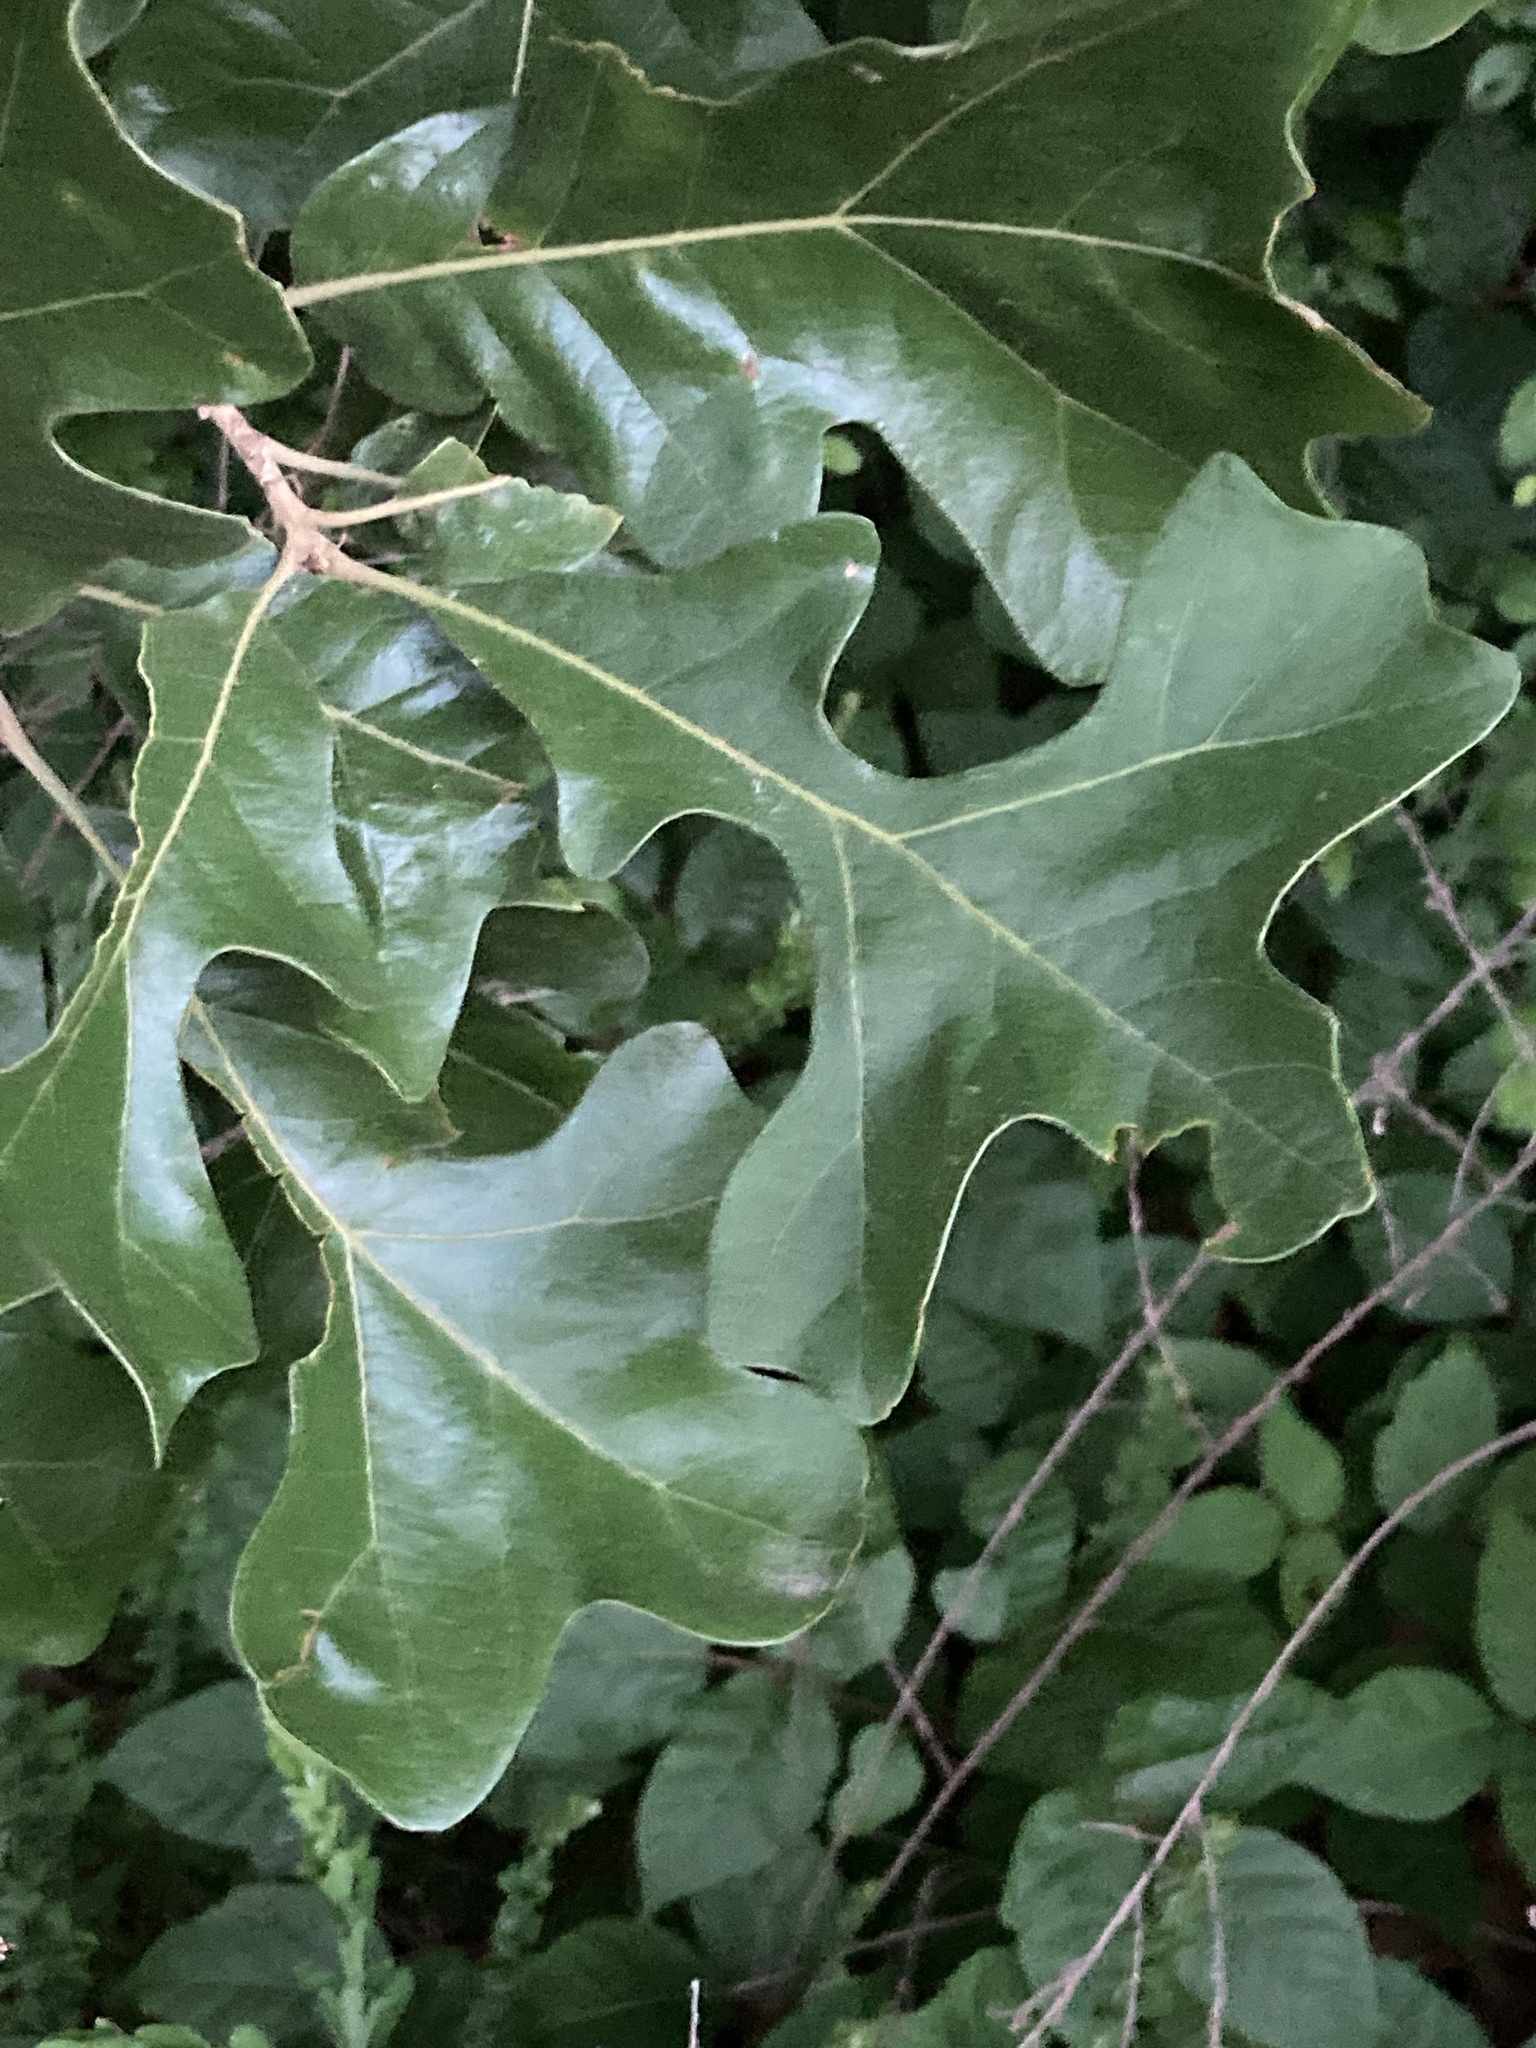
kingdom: Plantae
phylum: Tracheophyta
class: Magnoliopsida
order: Fagales
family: Fagaceae
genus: Quercus
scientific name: Quercus stellata
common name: Post oak
